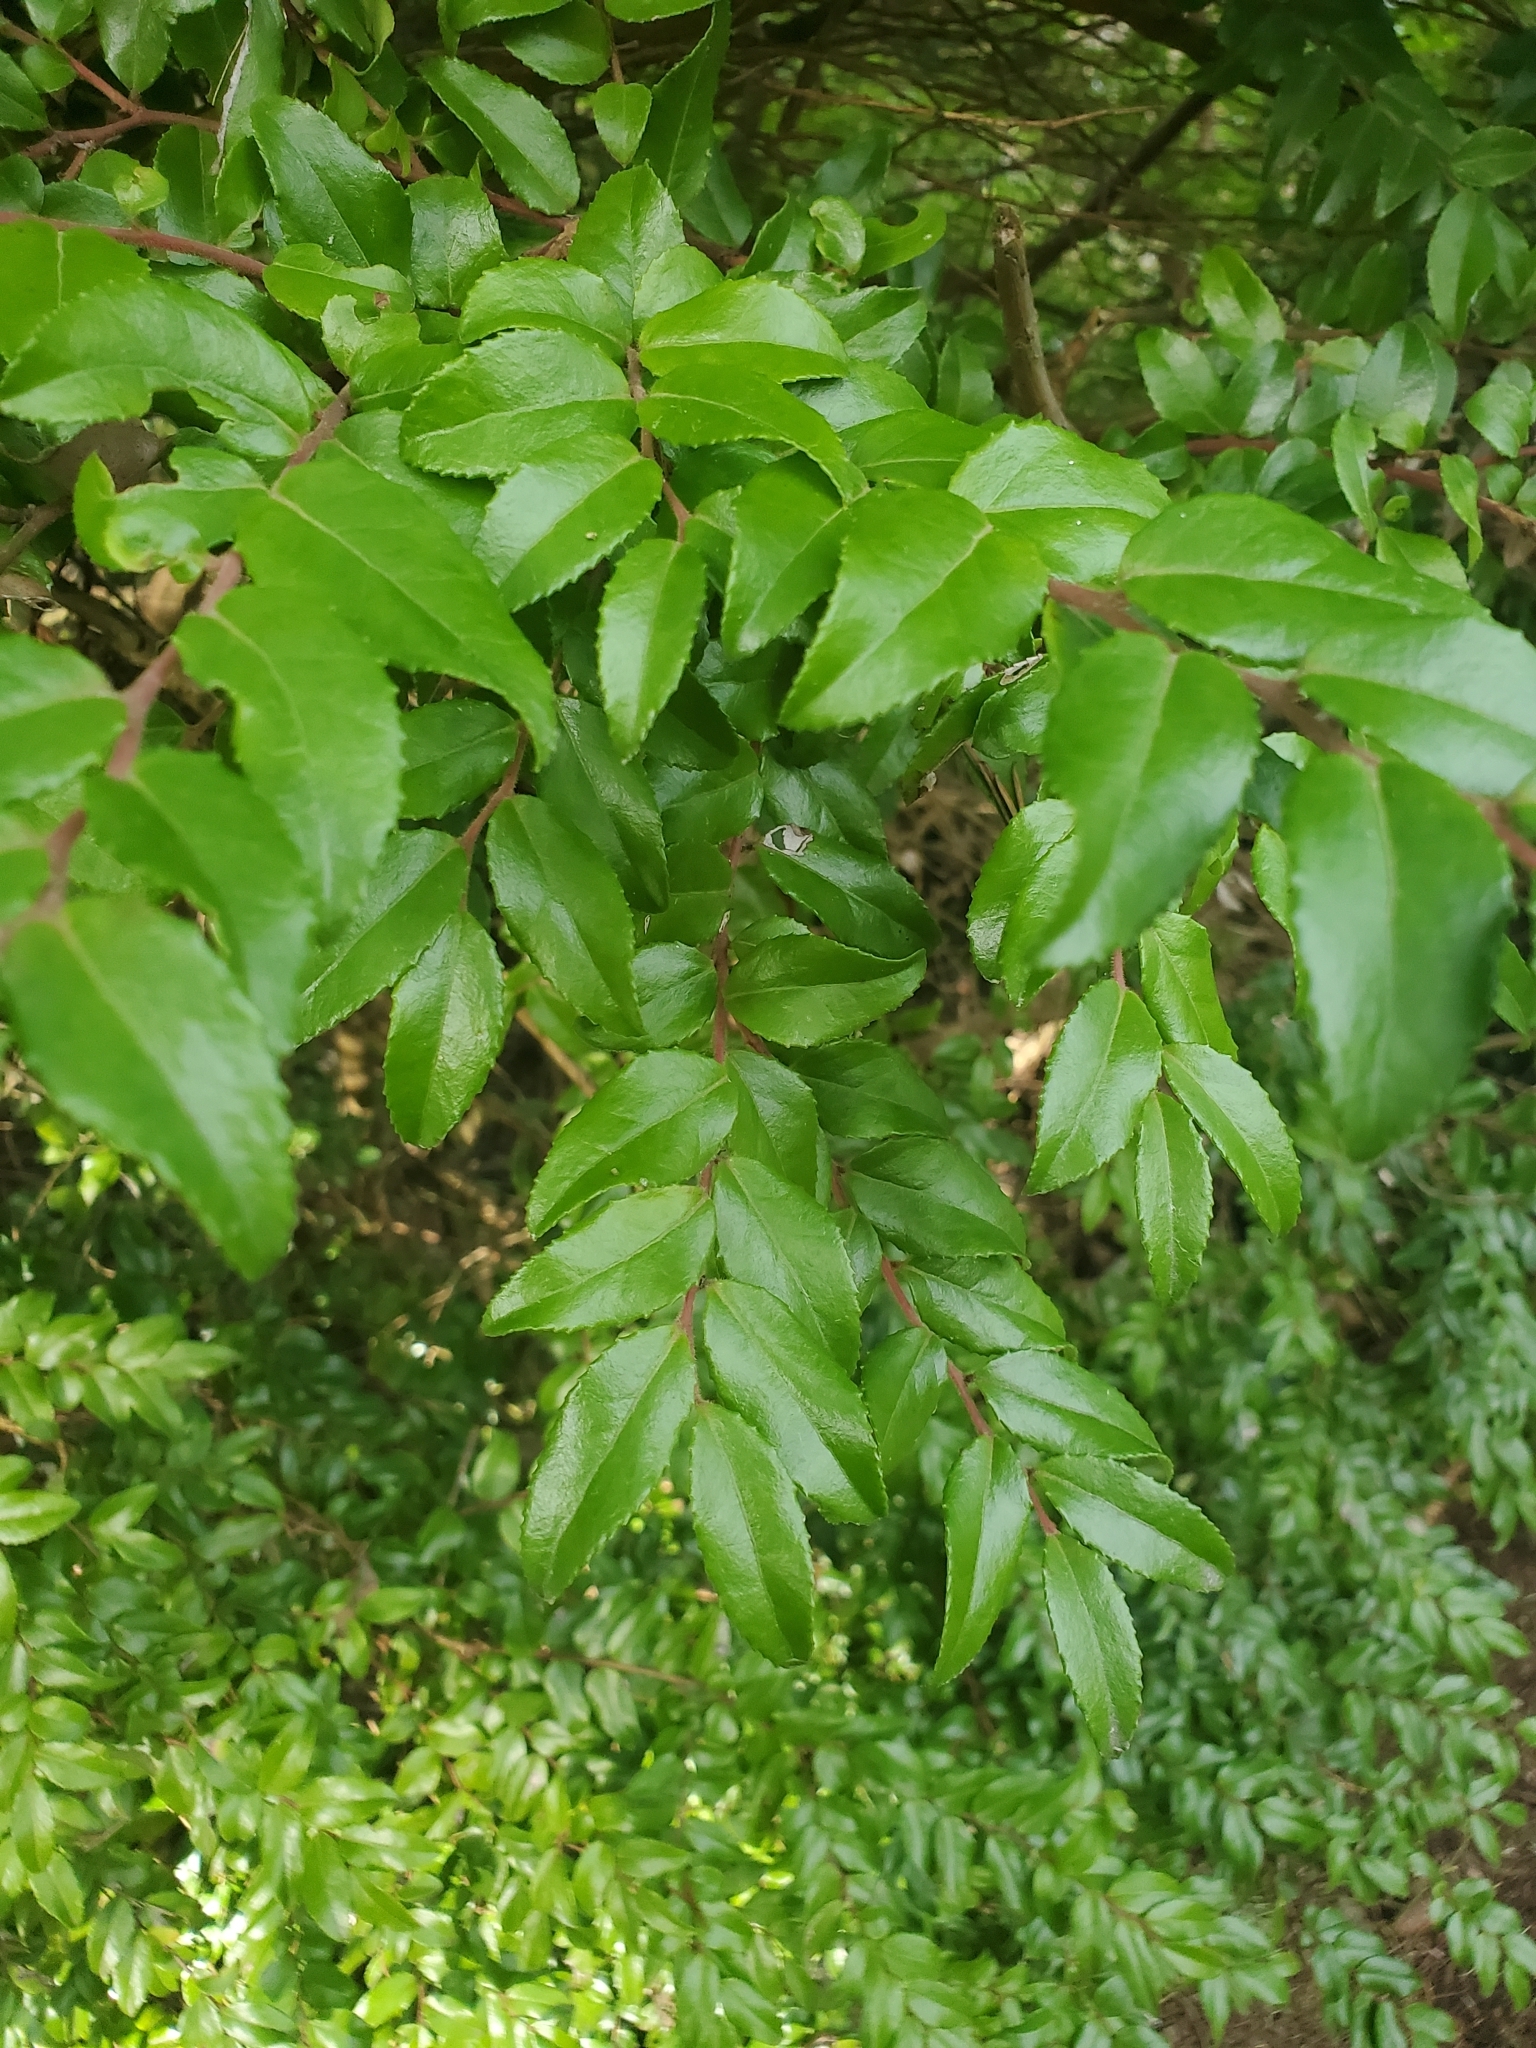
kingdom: Plantae
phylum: Tracheophyta
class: Magnoliopsida
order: Ericales
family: Ericaceae
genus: Vaccinium
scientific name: Vaccinium ovatum
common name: California-huckleberry
